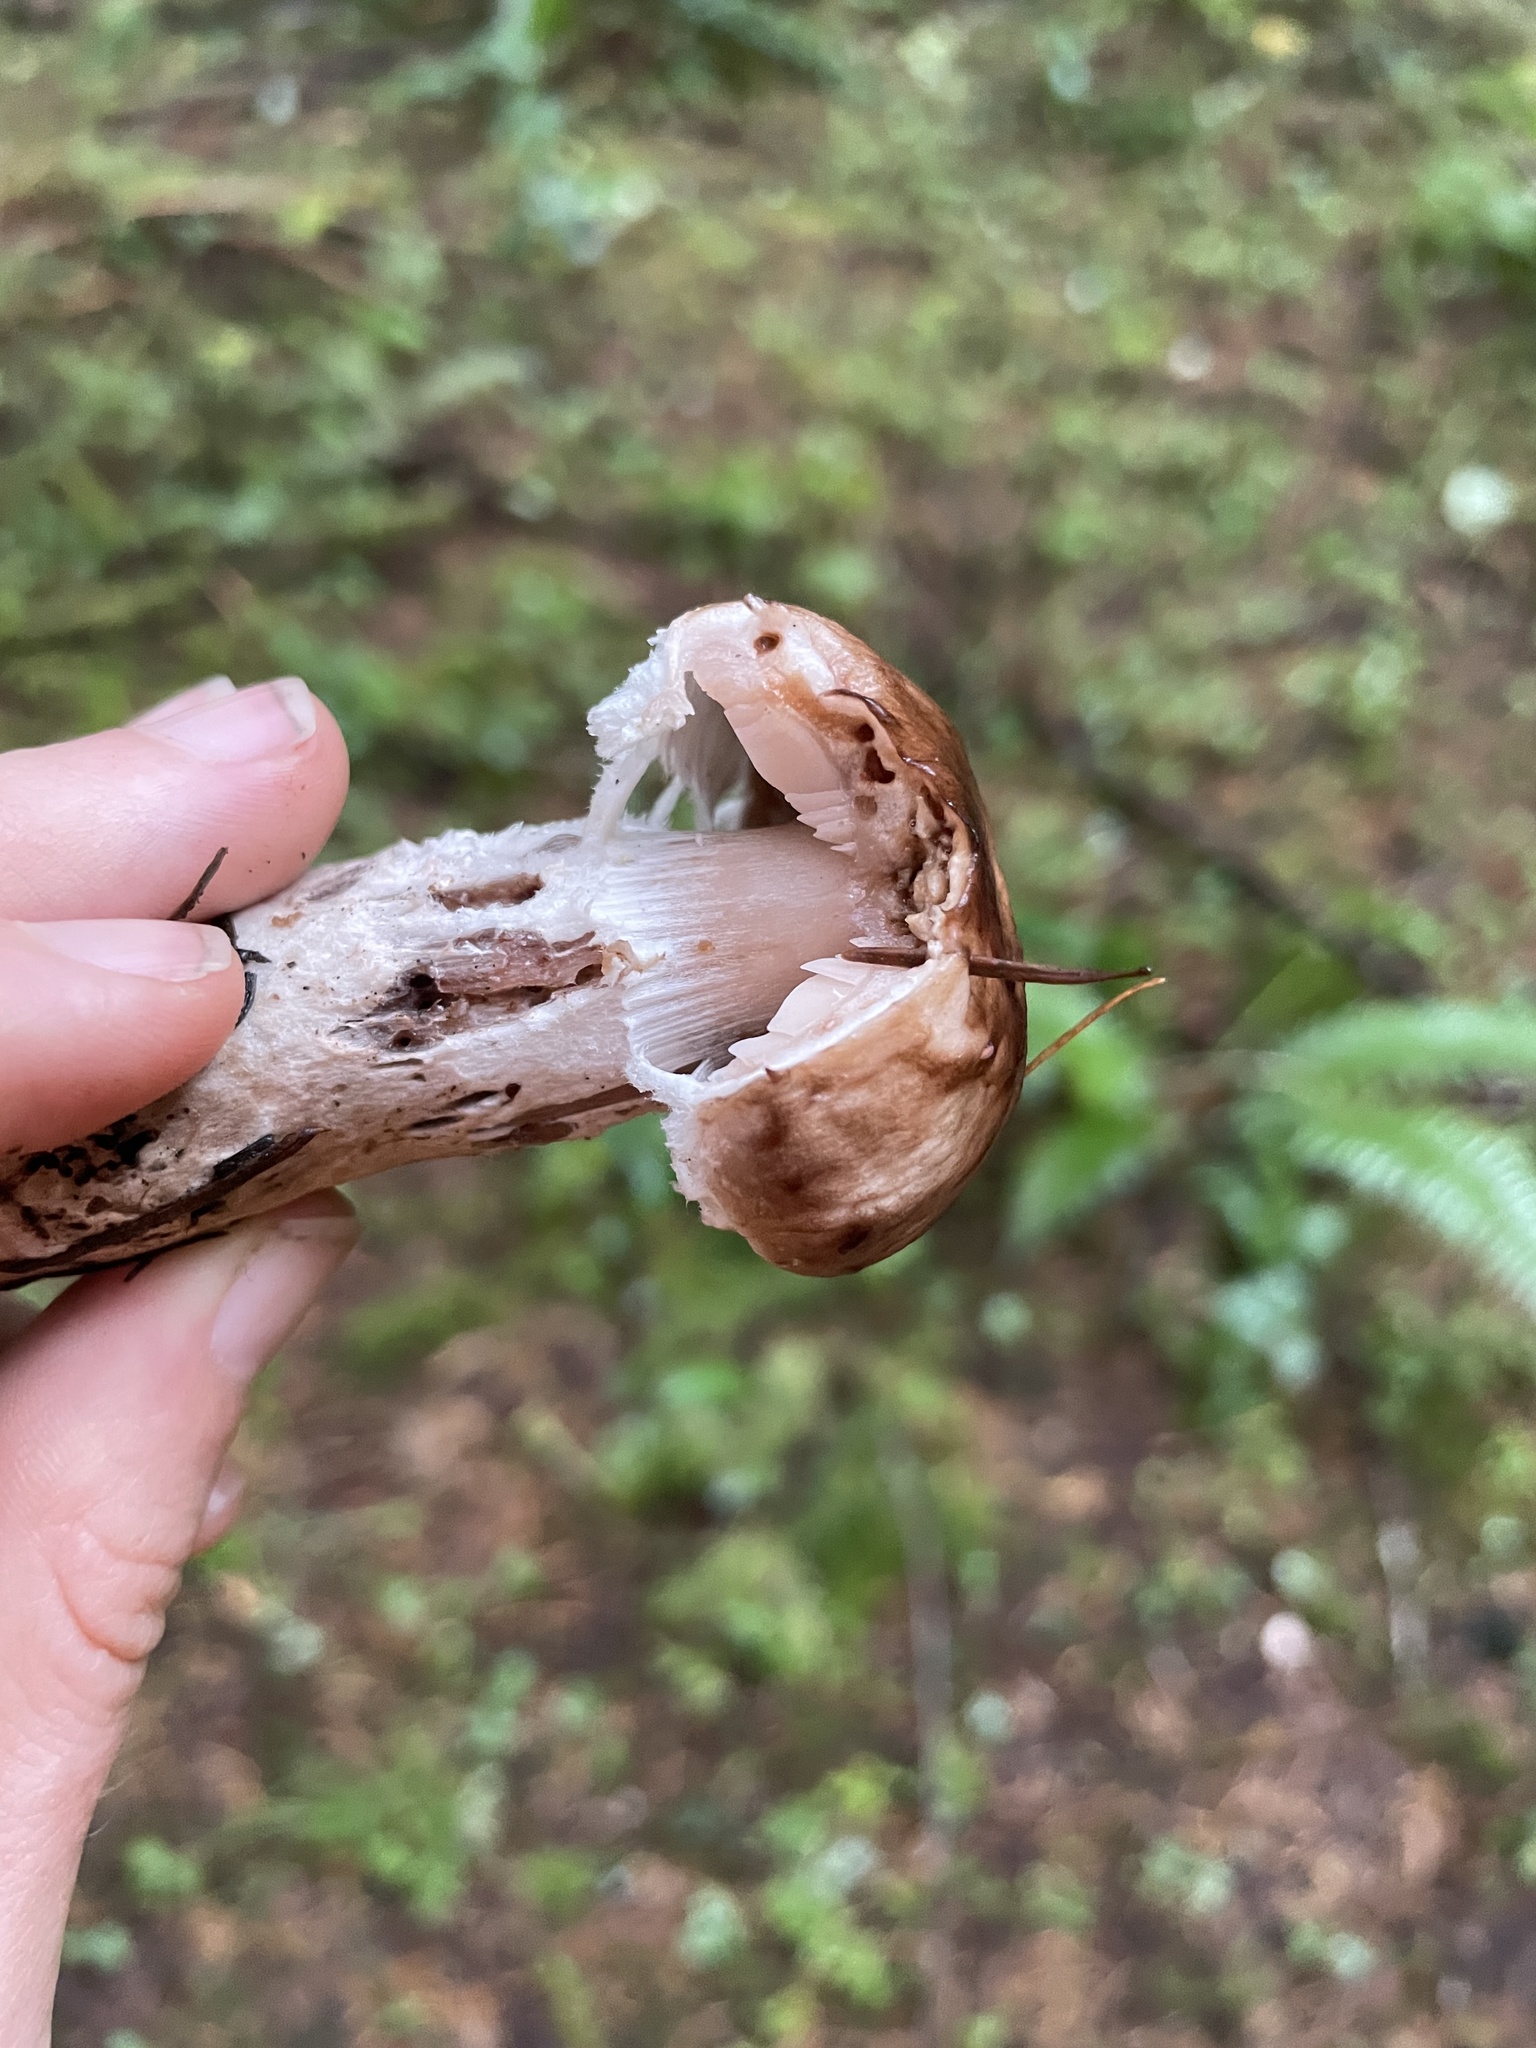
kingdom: Fungi
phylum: Basidiomycota
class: Agaricomycetes
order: Agaricales
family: Agaricaceae
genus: Agaricus
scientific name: Agaricus subrutilescens
